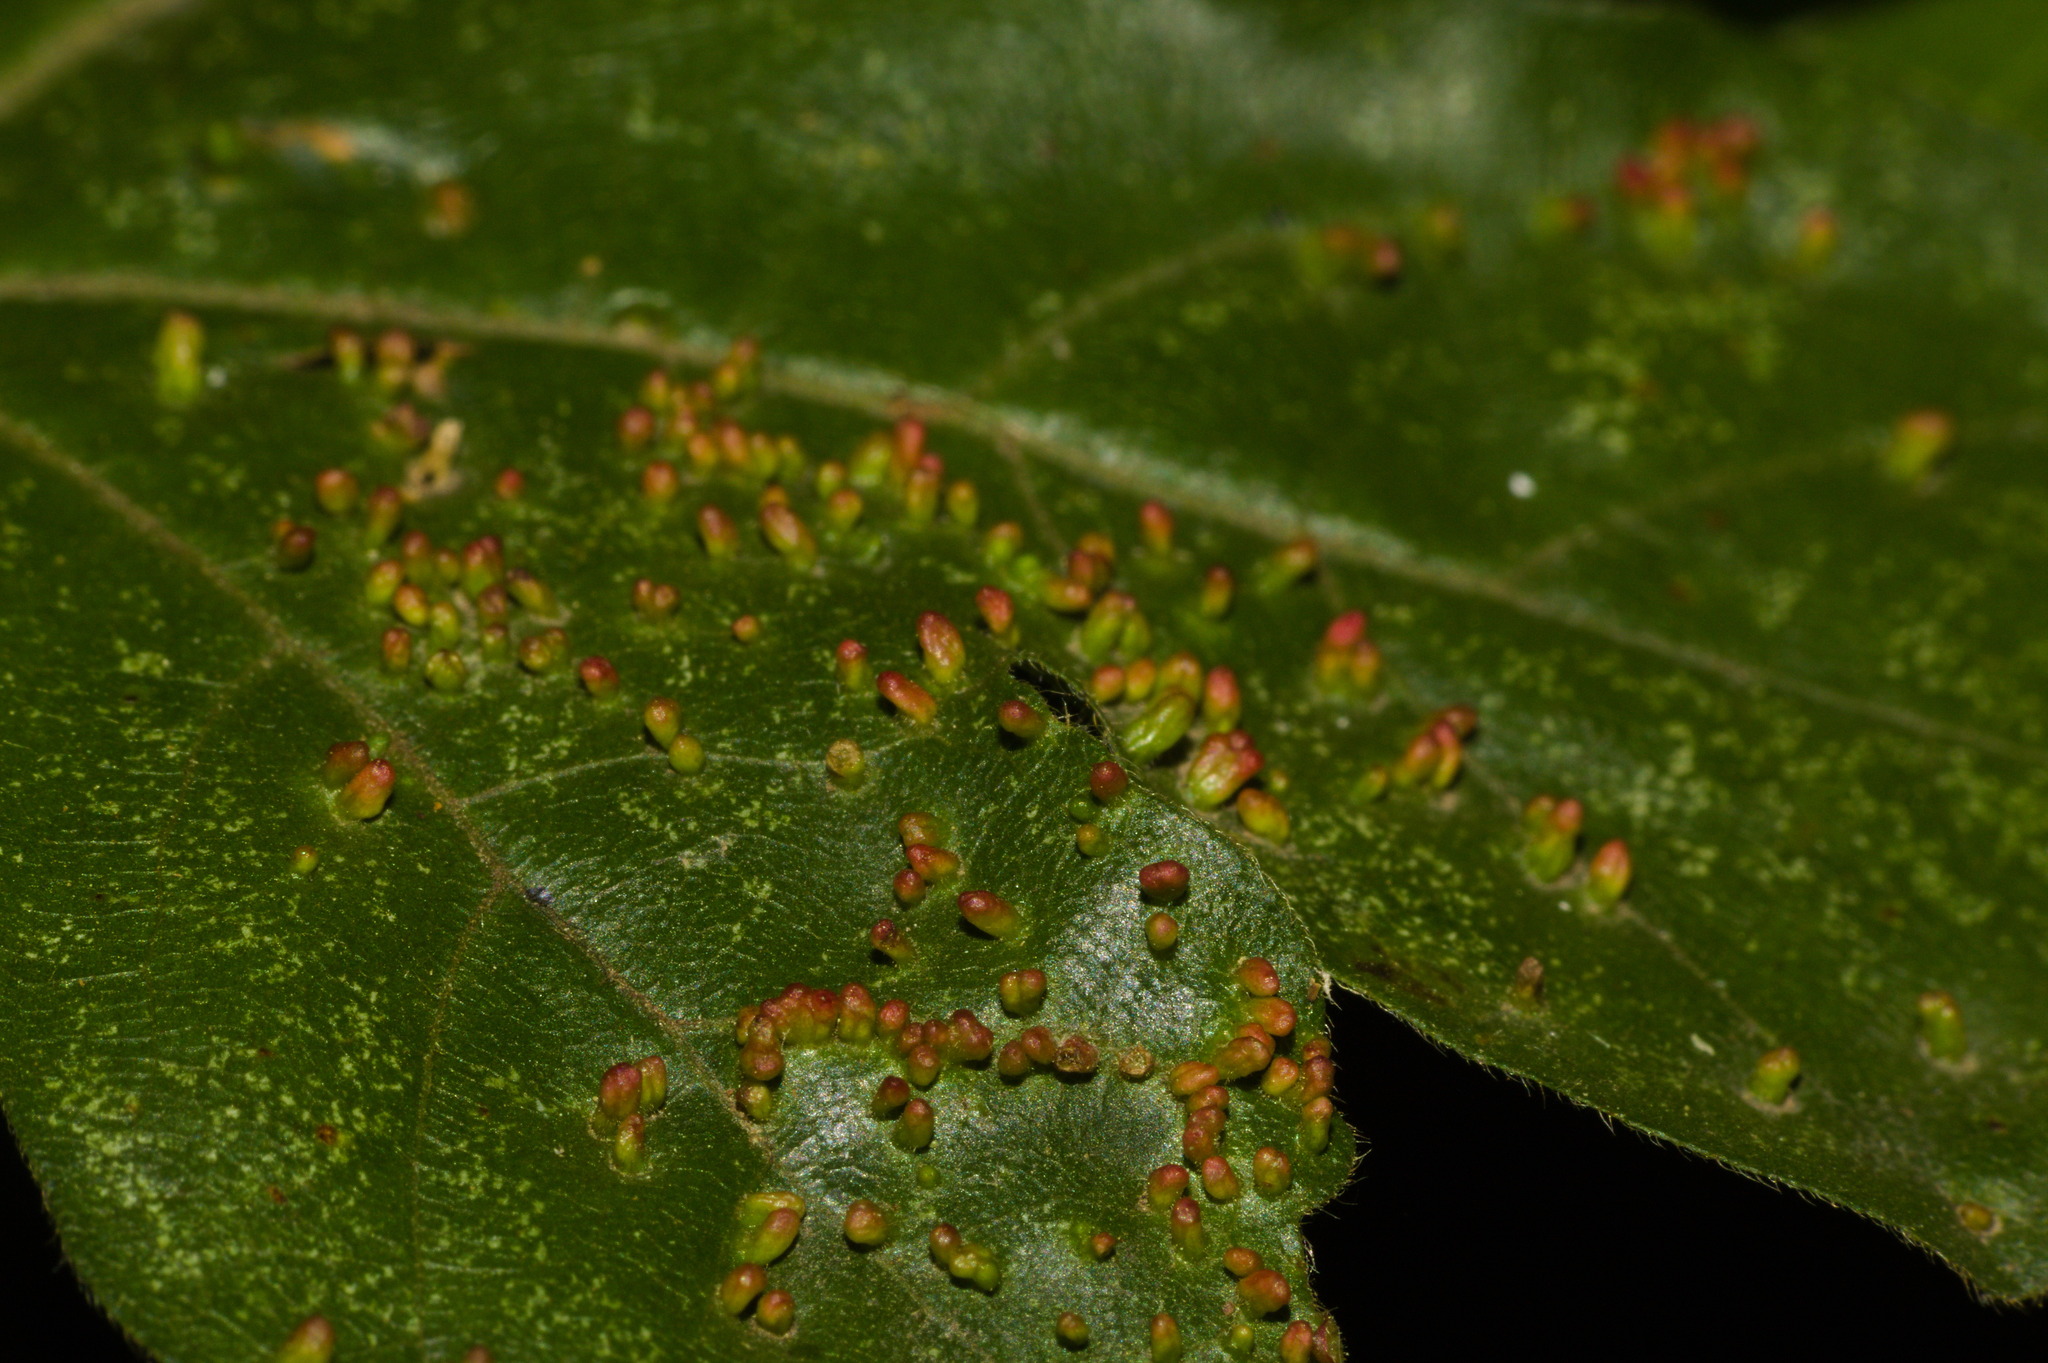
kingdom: Animalia
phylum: Arthropoda
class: Arachnida
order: Trombidiformes
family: Eriophyidae
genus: Aceria
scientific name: Aceria cephaloneus
